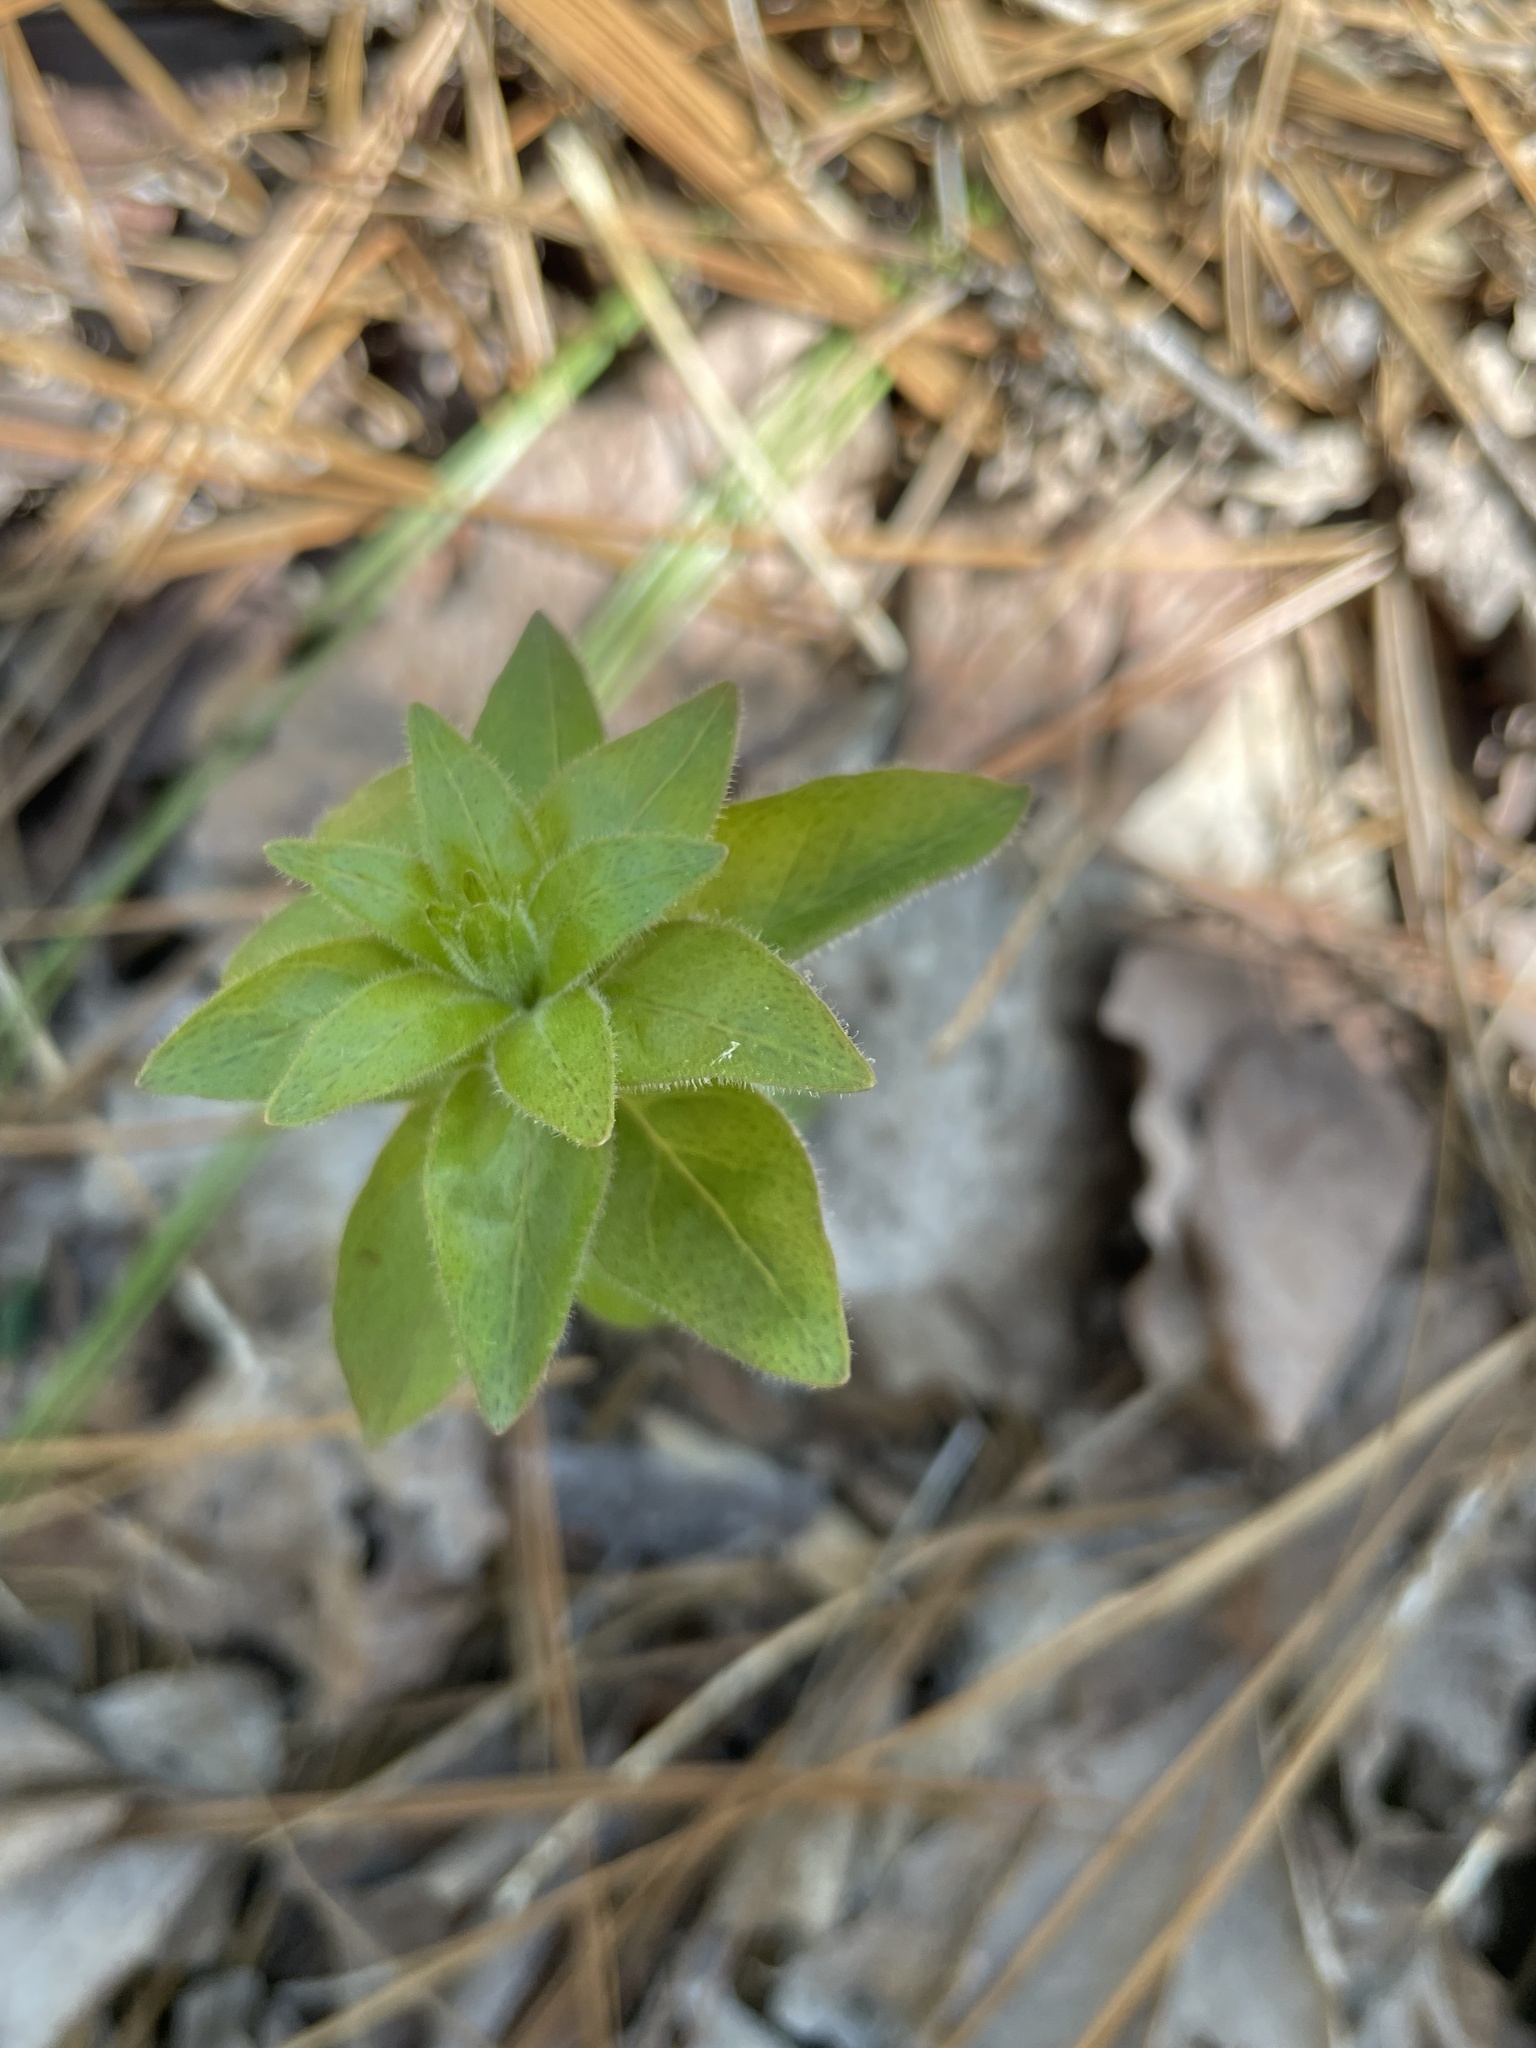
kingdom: Plantae
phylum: Tracheophyta
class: Magnoliopsida
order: Ericales
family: Primulaceae
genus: Lysimachia
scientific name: Lysimachia quadrifolia
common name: Whorled loosestrife
